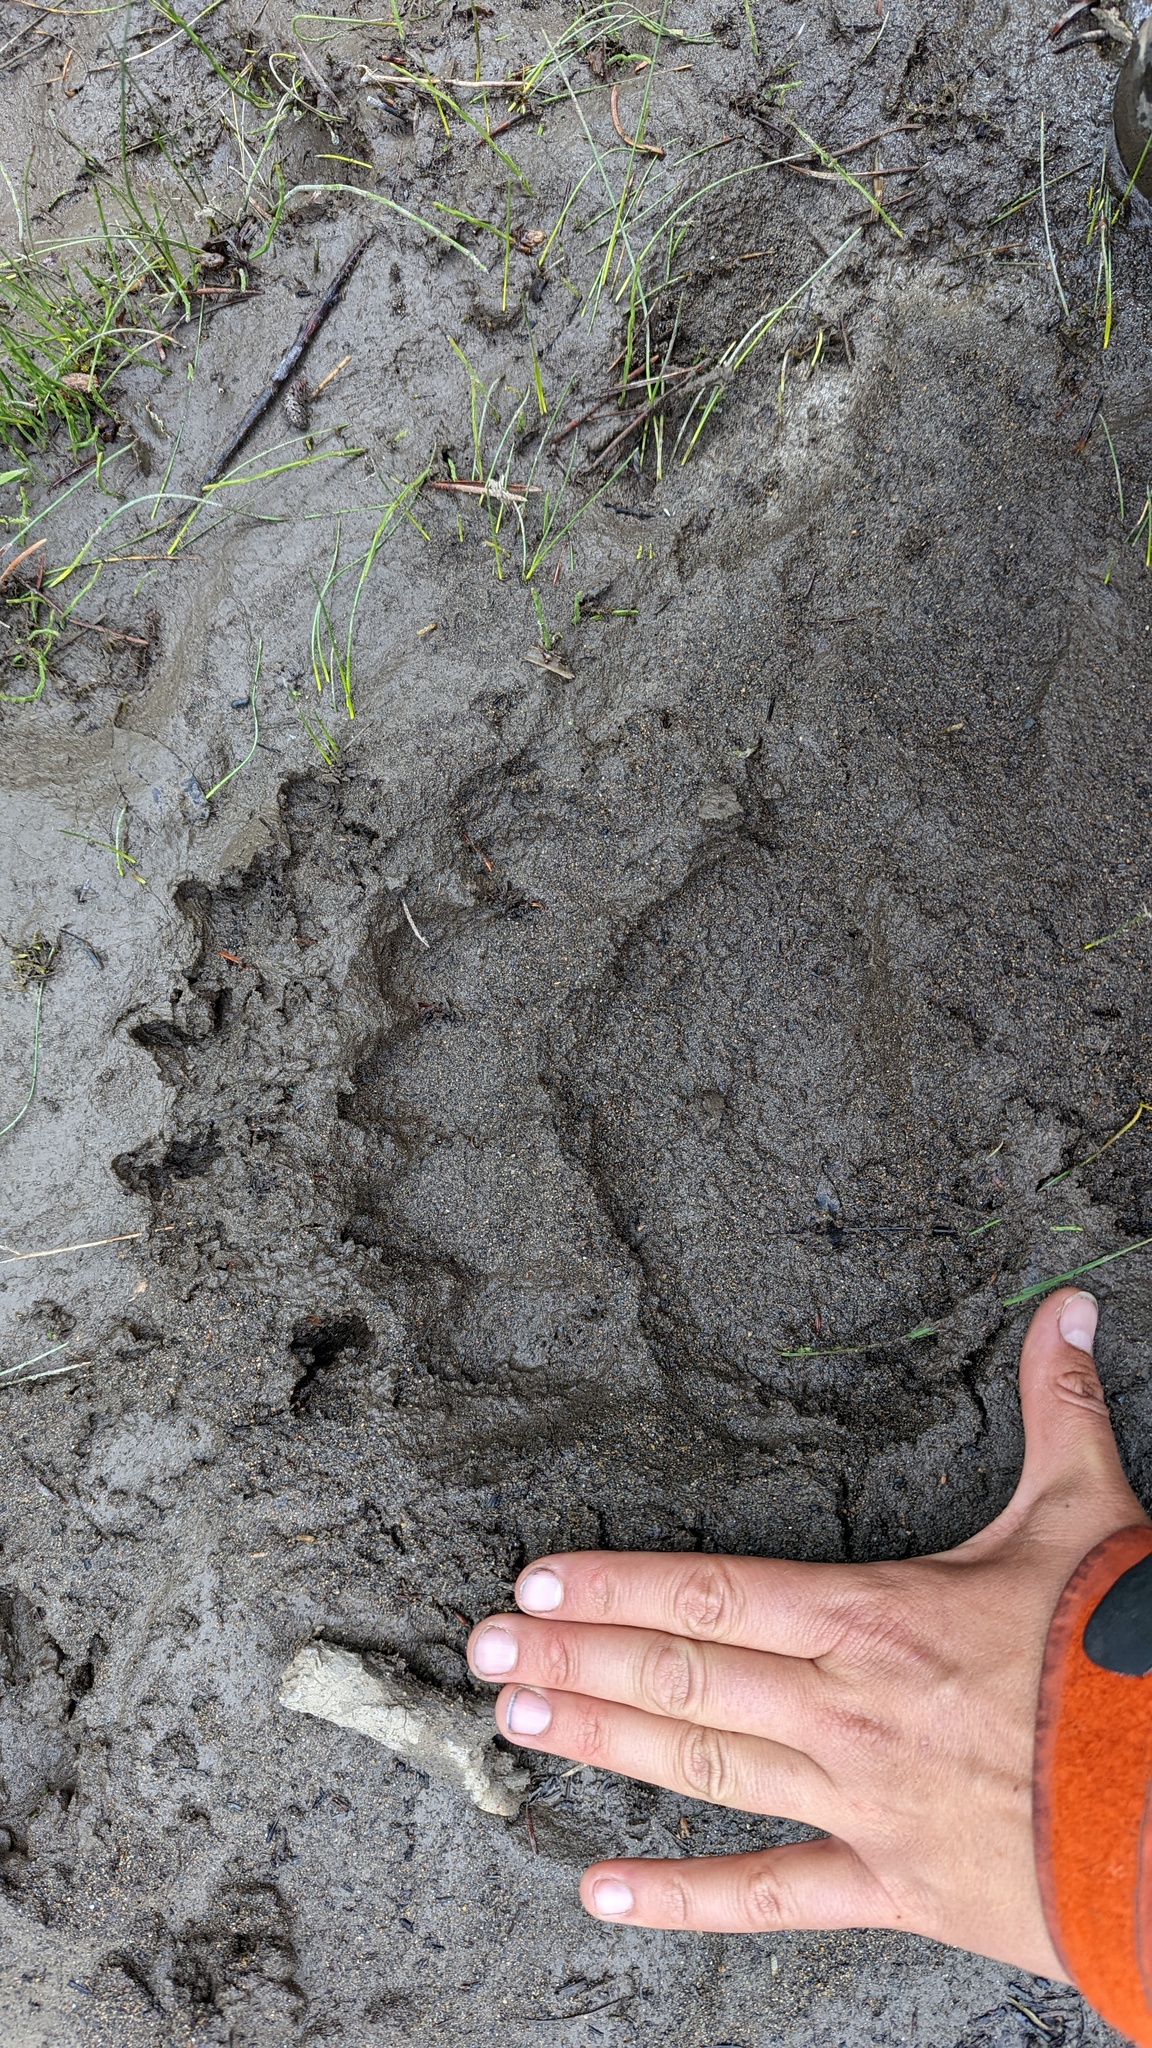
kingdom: Animalia
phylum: Chordata
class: Mammalia
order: Carnivora
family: Ursidae
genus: Ursus
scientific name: Ursus arctos
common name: Brown bear
